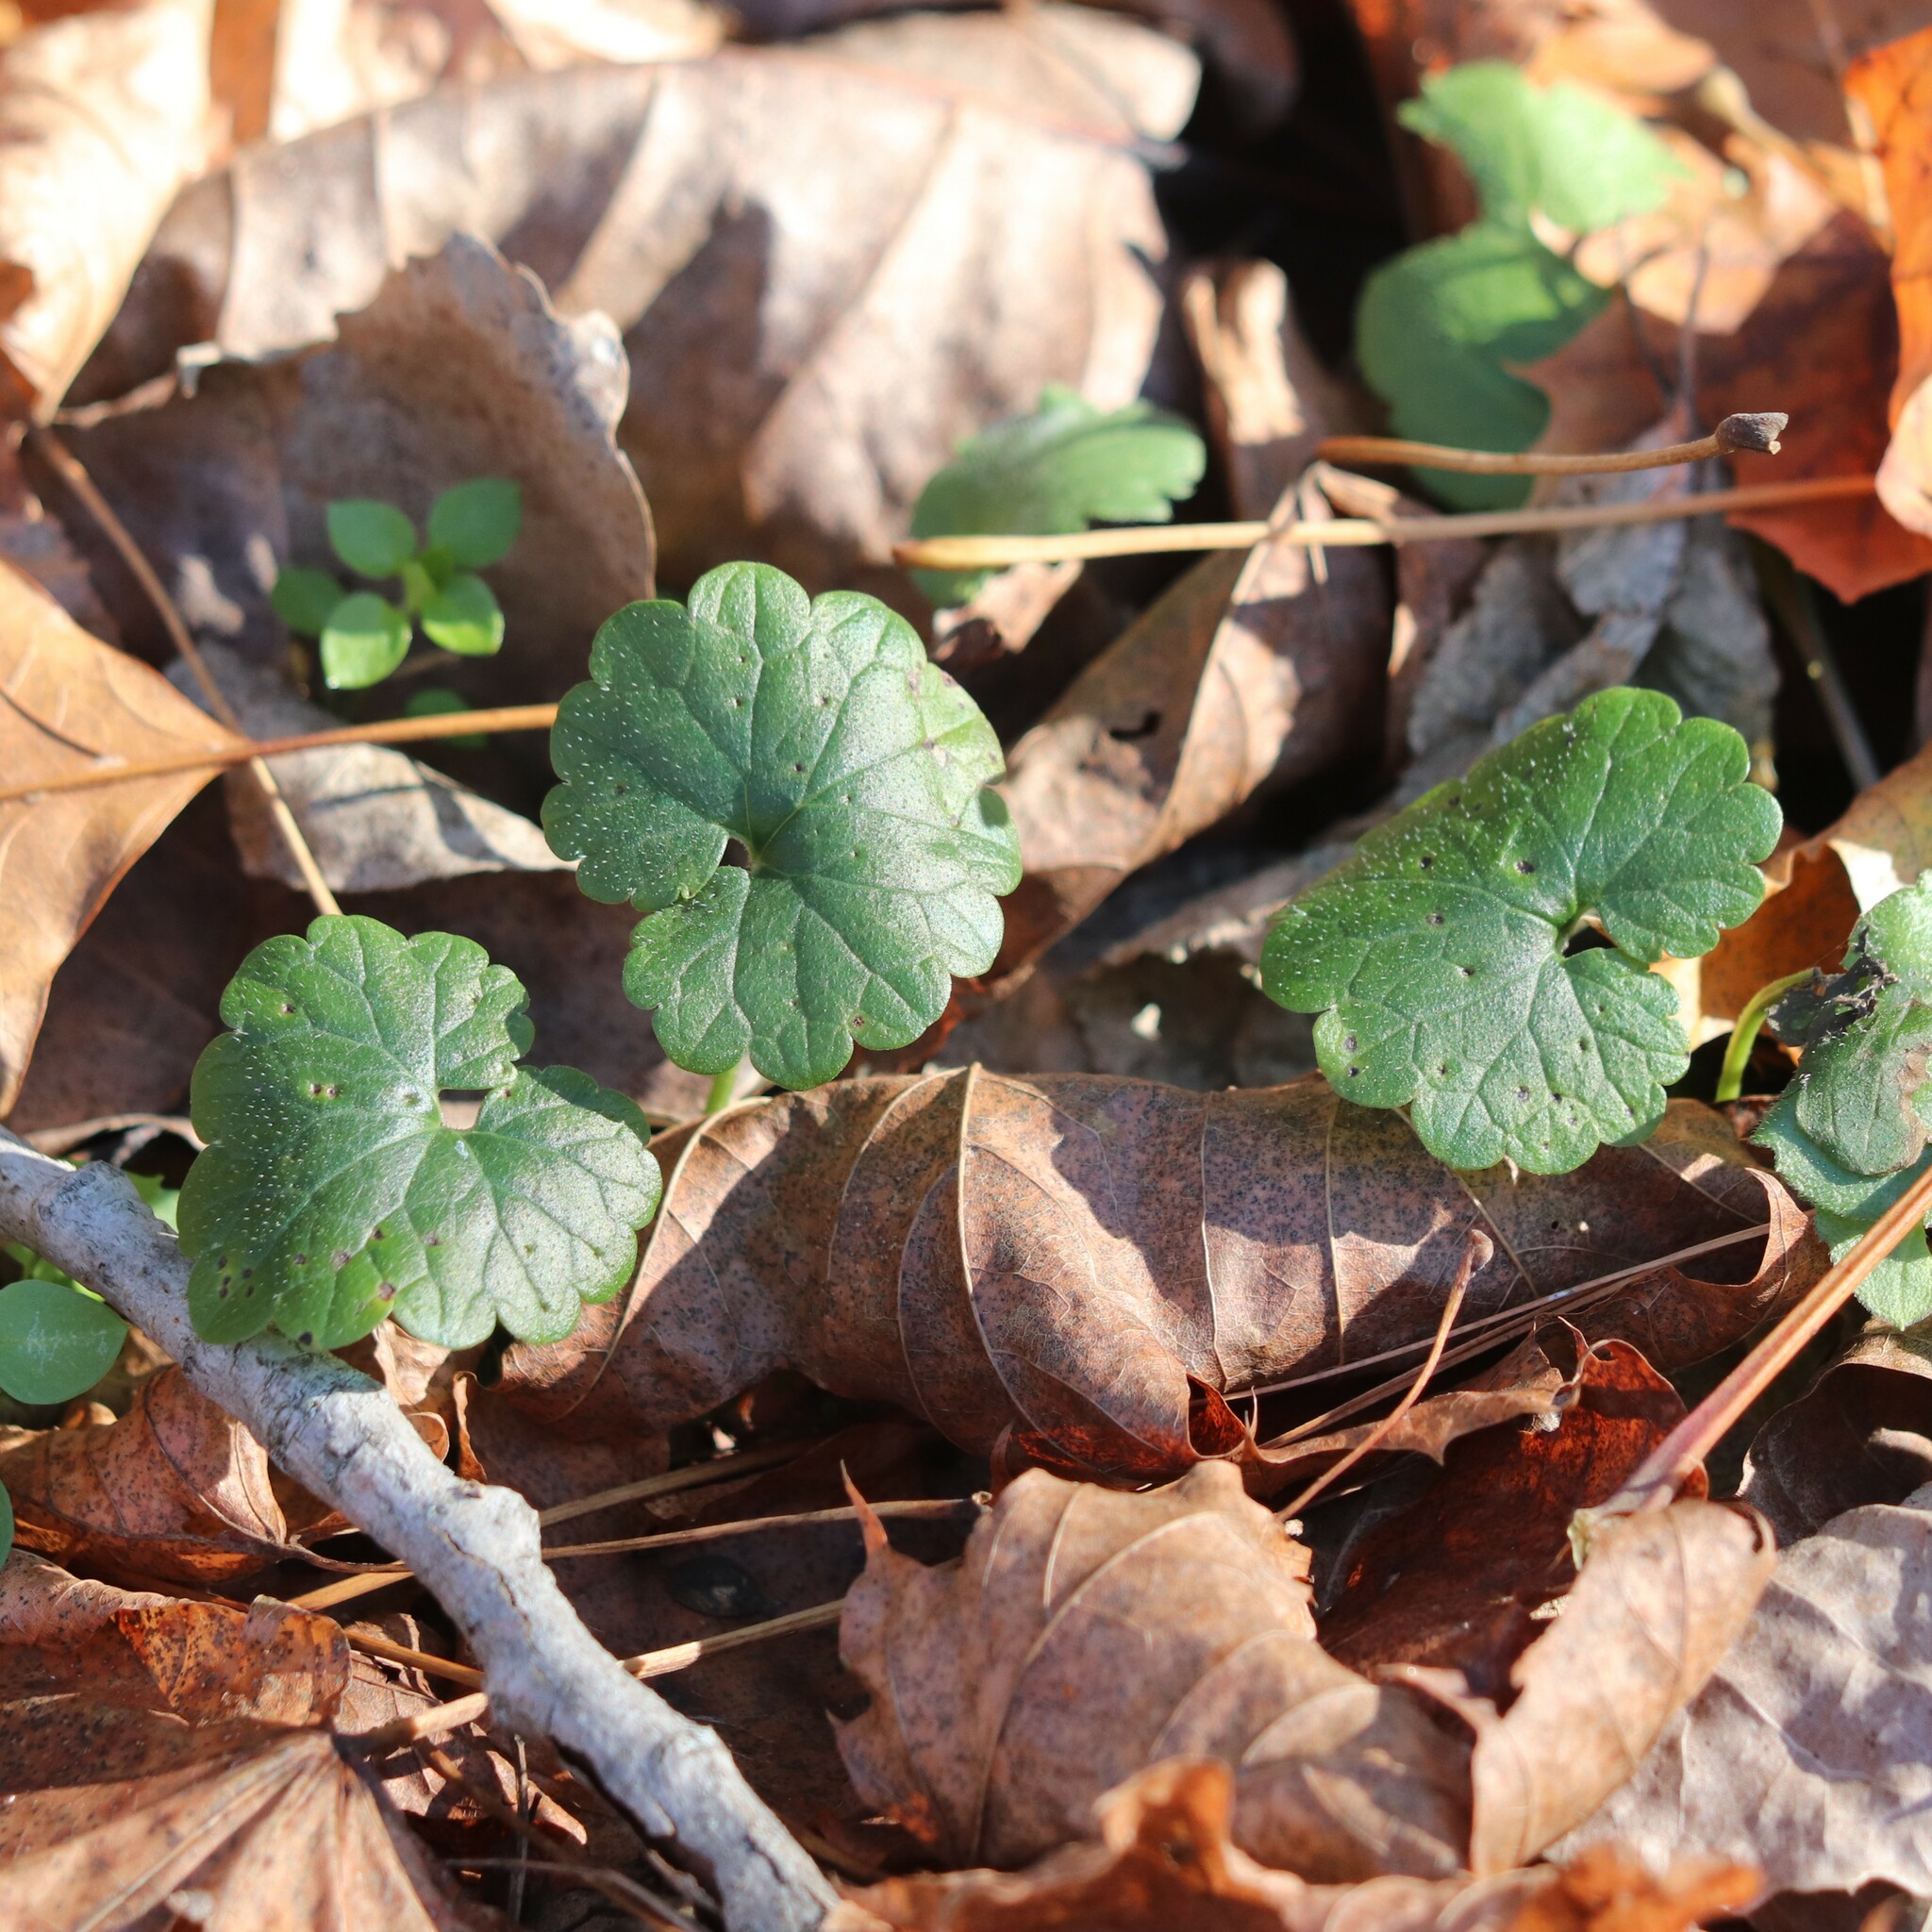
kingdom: Plantae
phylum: Tracheophyta
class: Magnoliopsida
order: Lamiales
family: Lamiaceae
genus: Glechoma
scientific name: Glechoma hederacea
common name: Ground ivy
